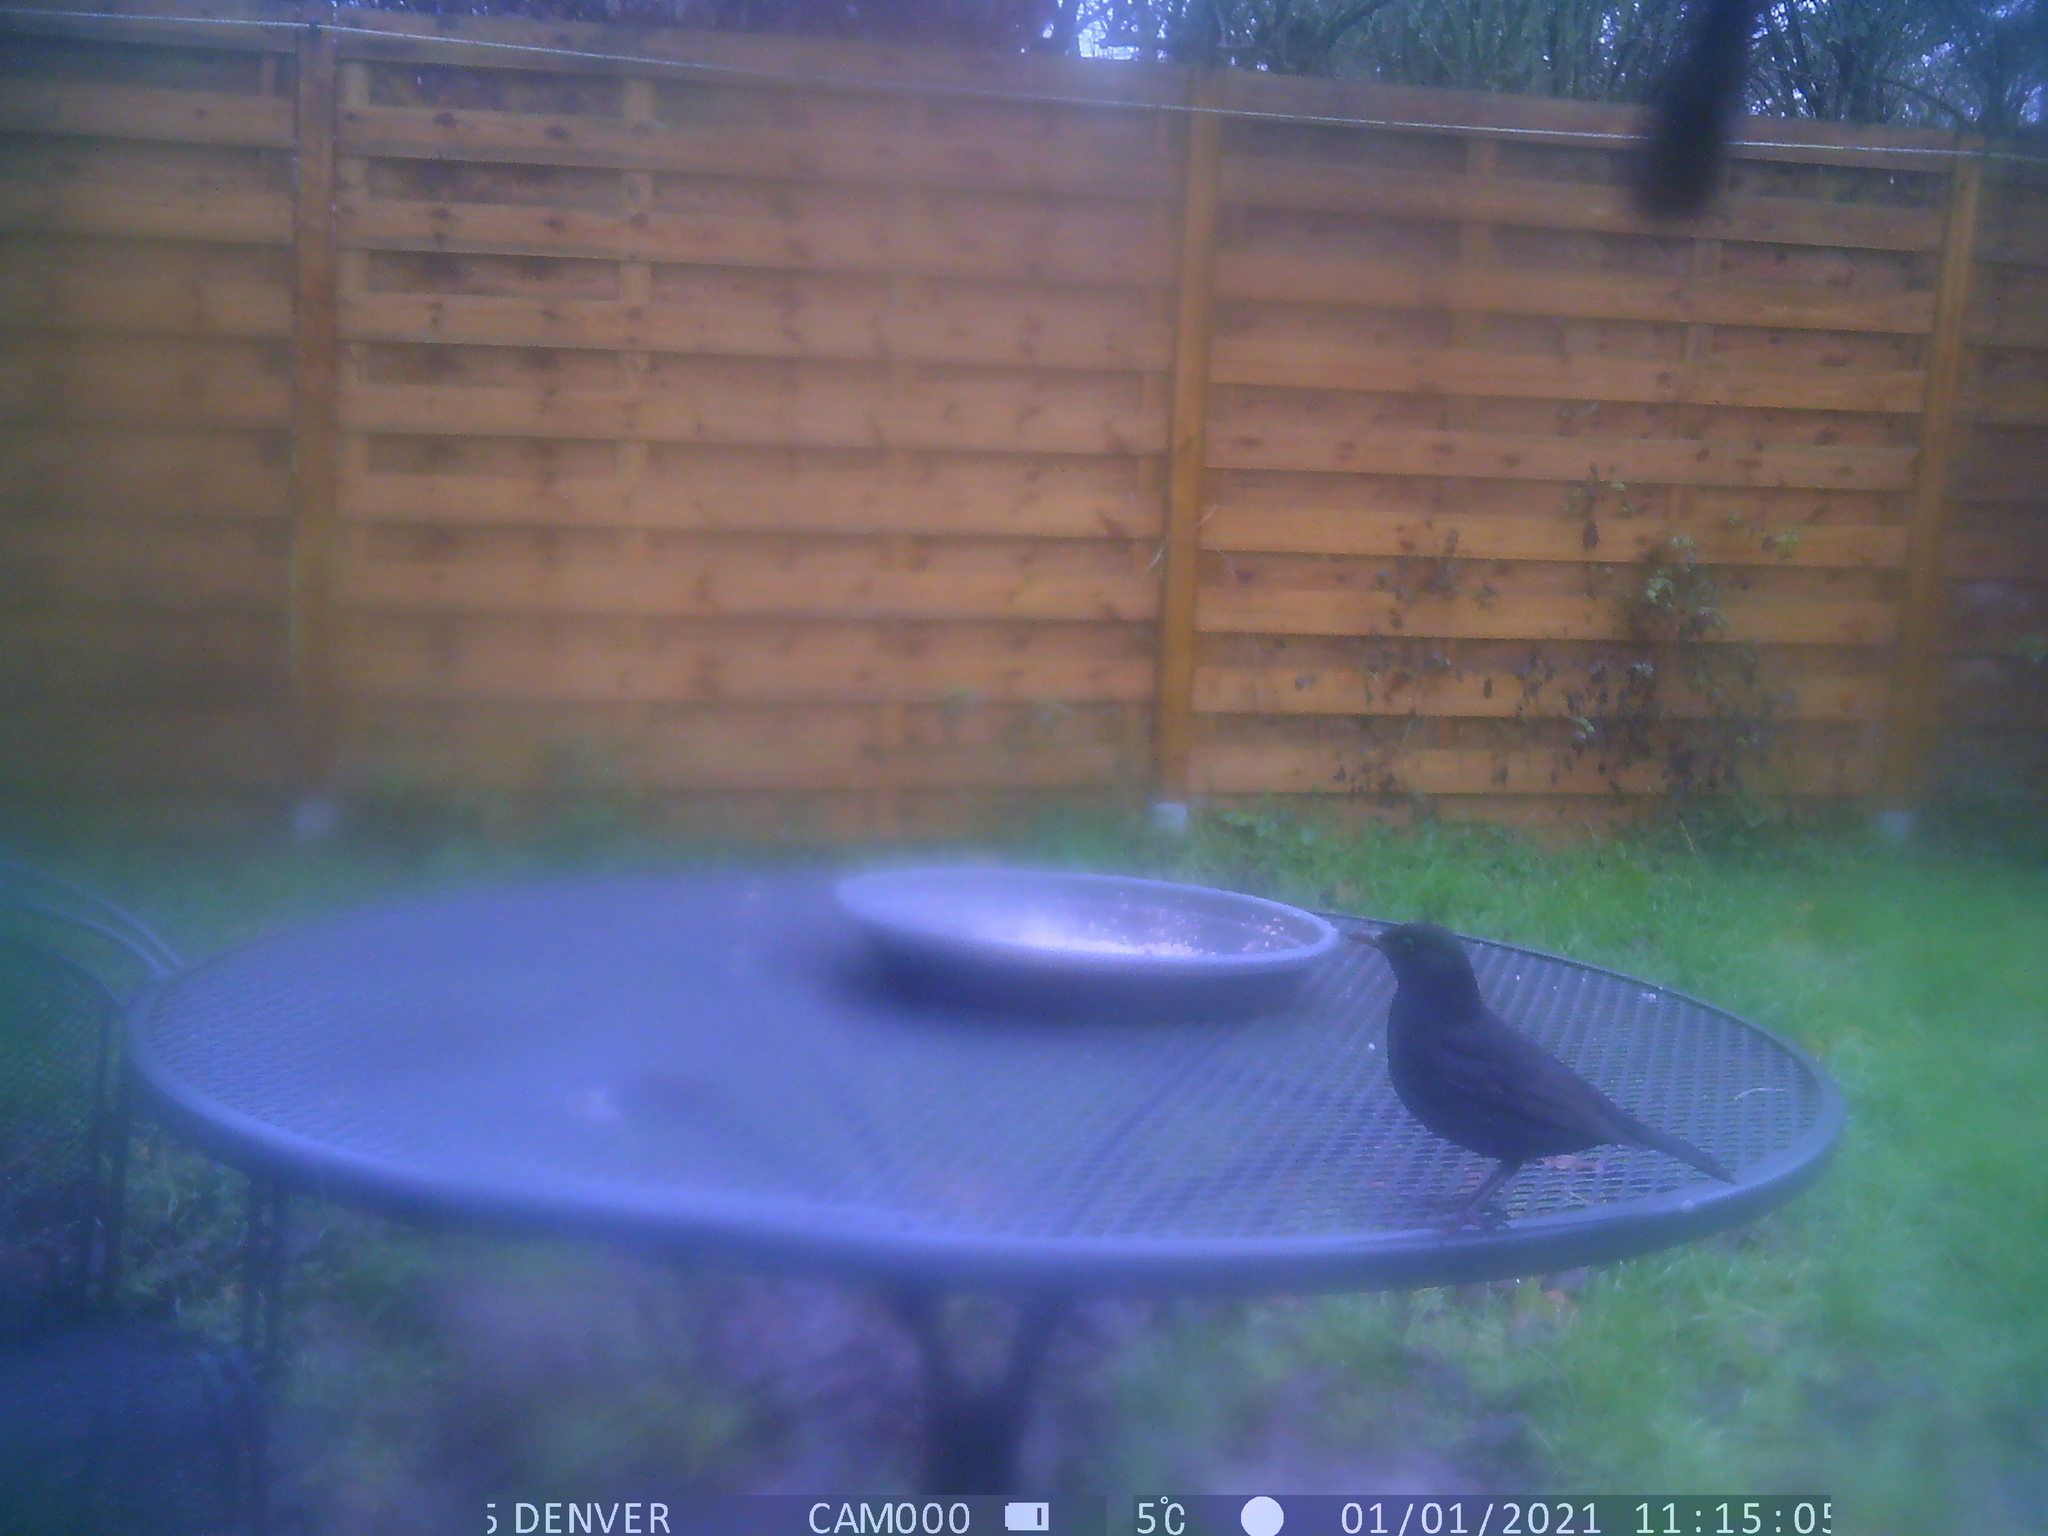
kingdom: Animalia
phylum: Chordata
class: Aves
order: Passeriformes
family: Turdidae
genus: Turdus
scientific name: Turdus merula
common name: Common blackbird
